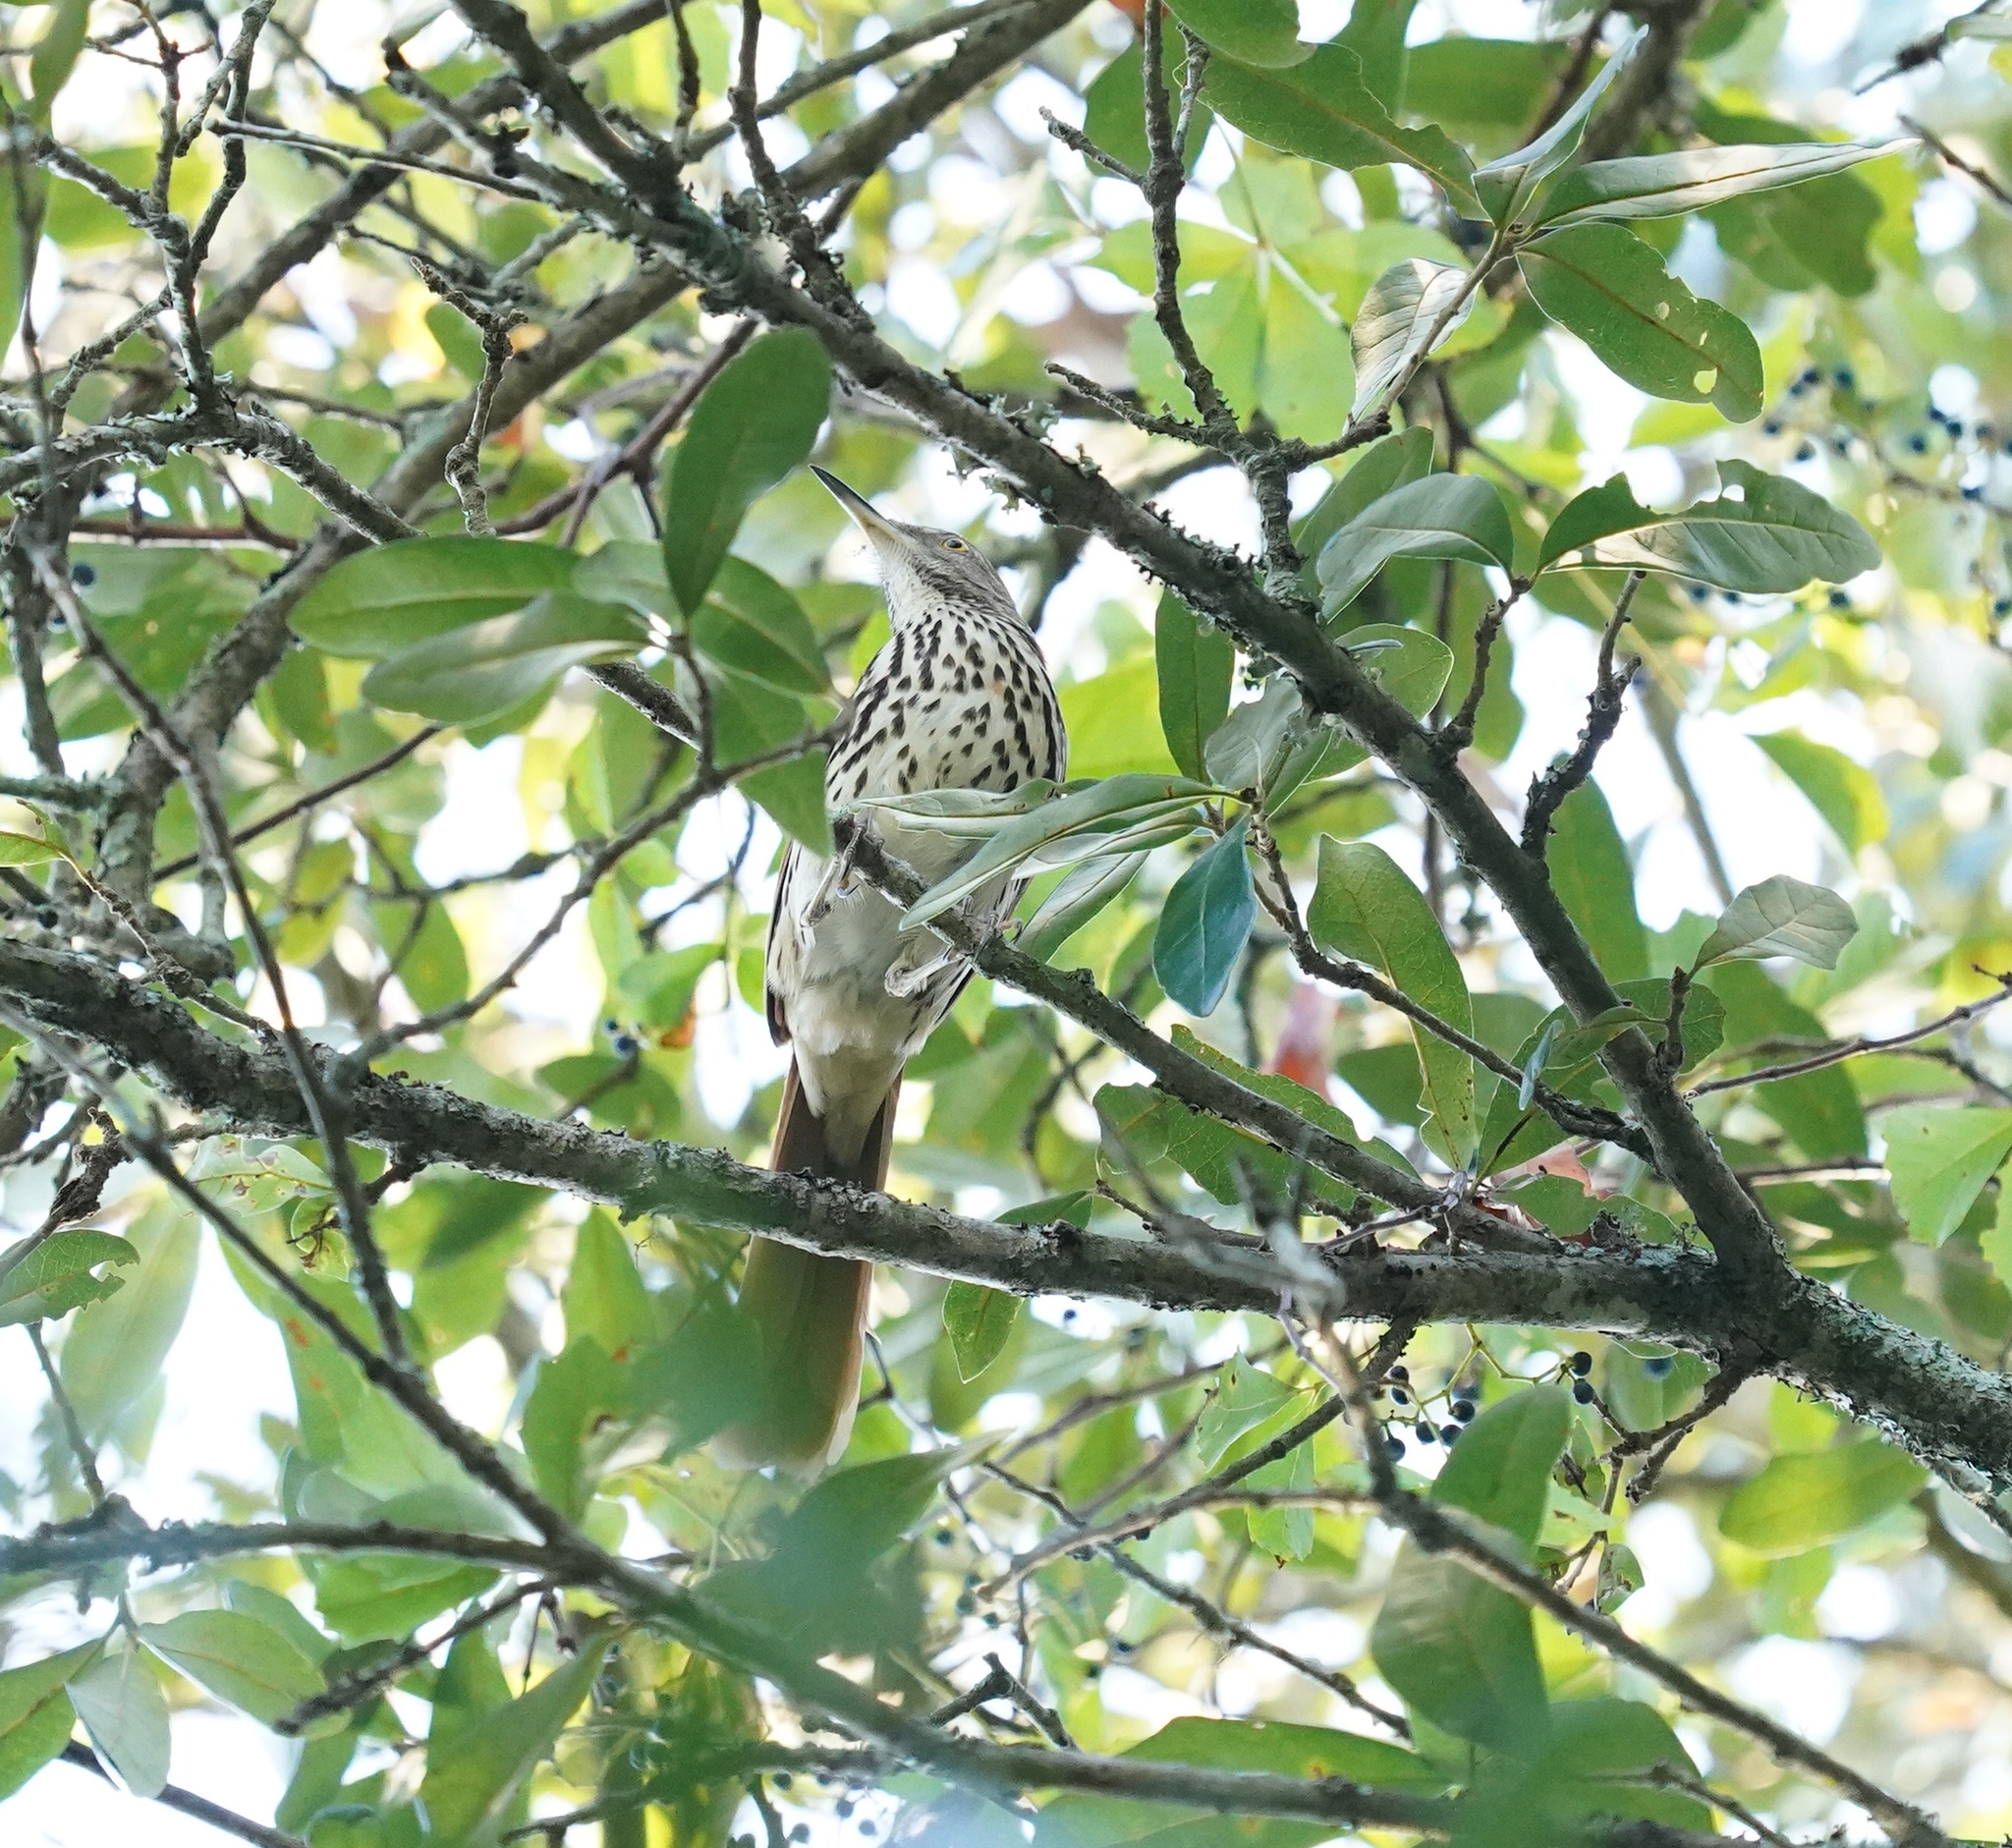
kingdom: Animalia
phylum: Chordata
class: Aves
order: Passeriformes
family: Mimidae
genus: Toxostoma
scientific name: Toxostoma rufum
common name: Brown thrasher
